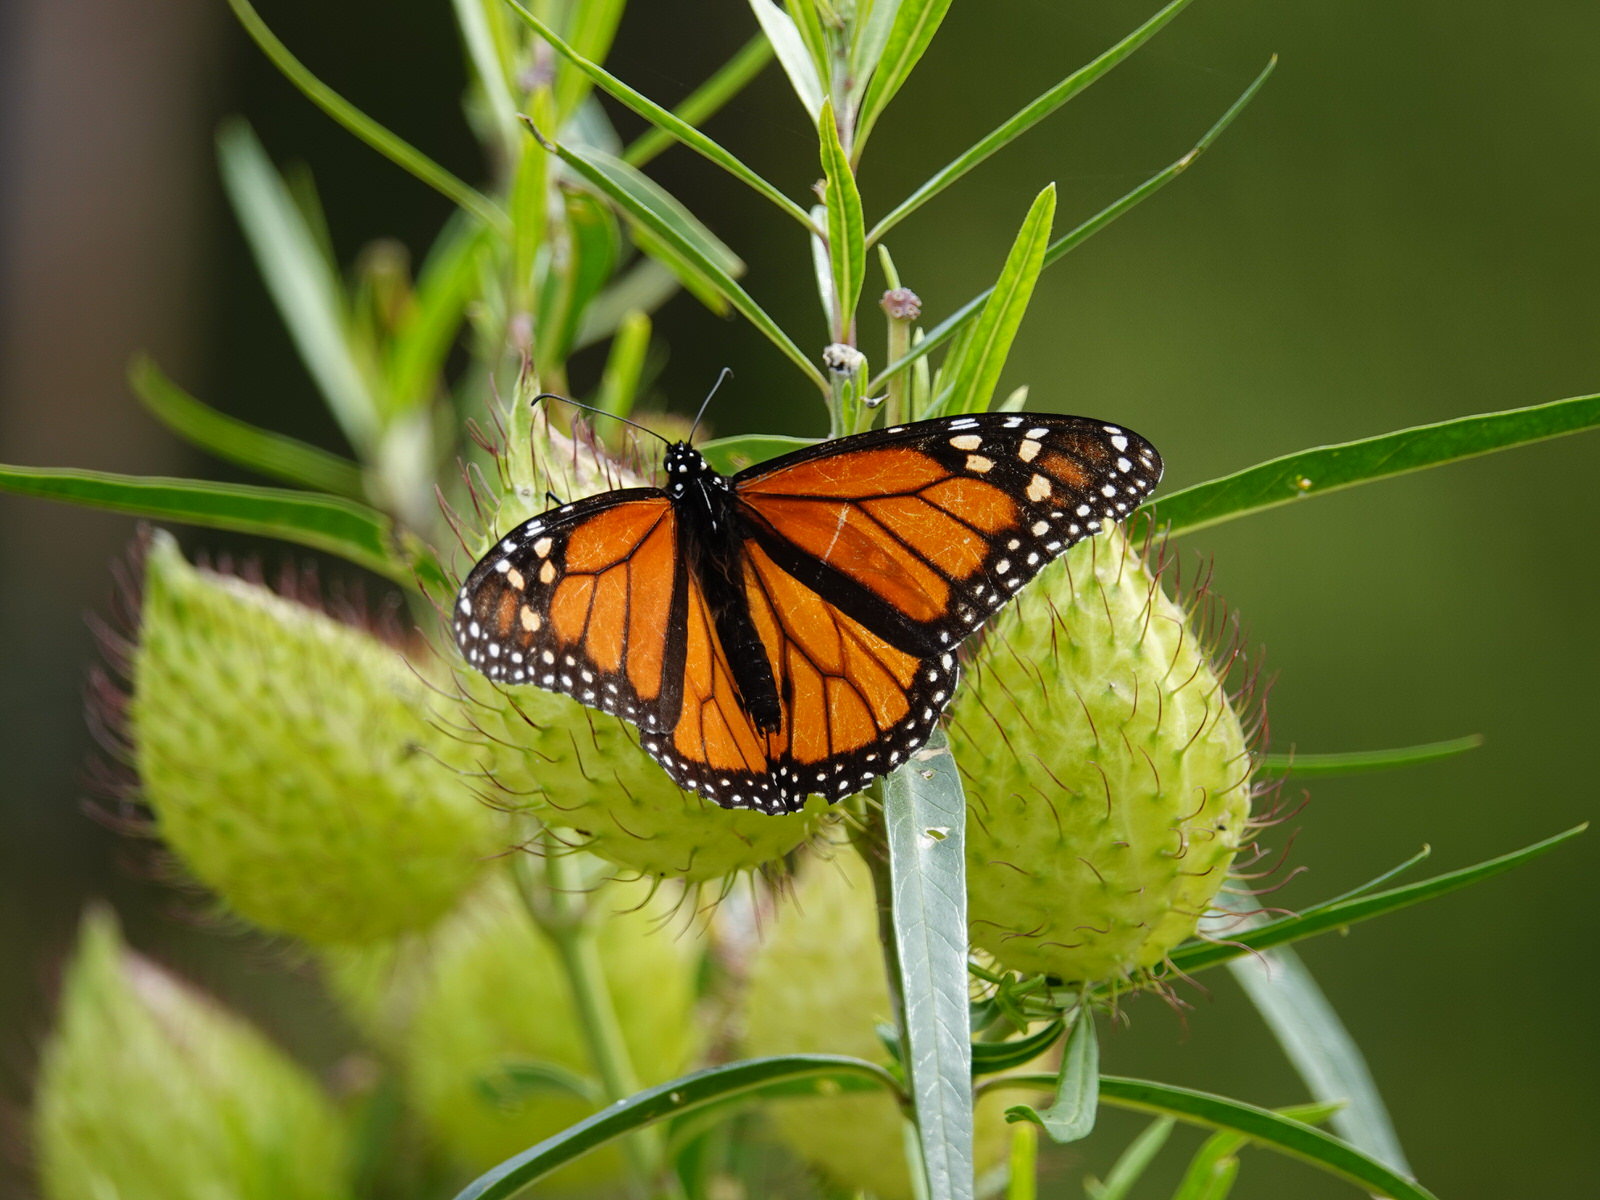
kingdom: Animalia
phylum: Arthropoda
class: Insecta
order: Lepidoptera
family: Nymphalidae
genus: Danaus
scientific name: Danaus plexippus
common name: Monarch
